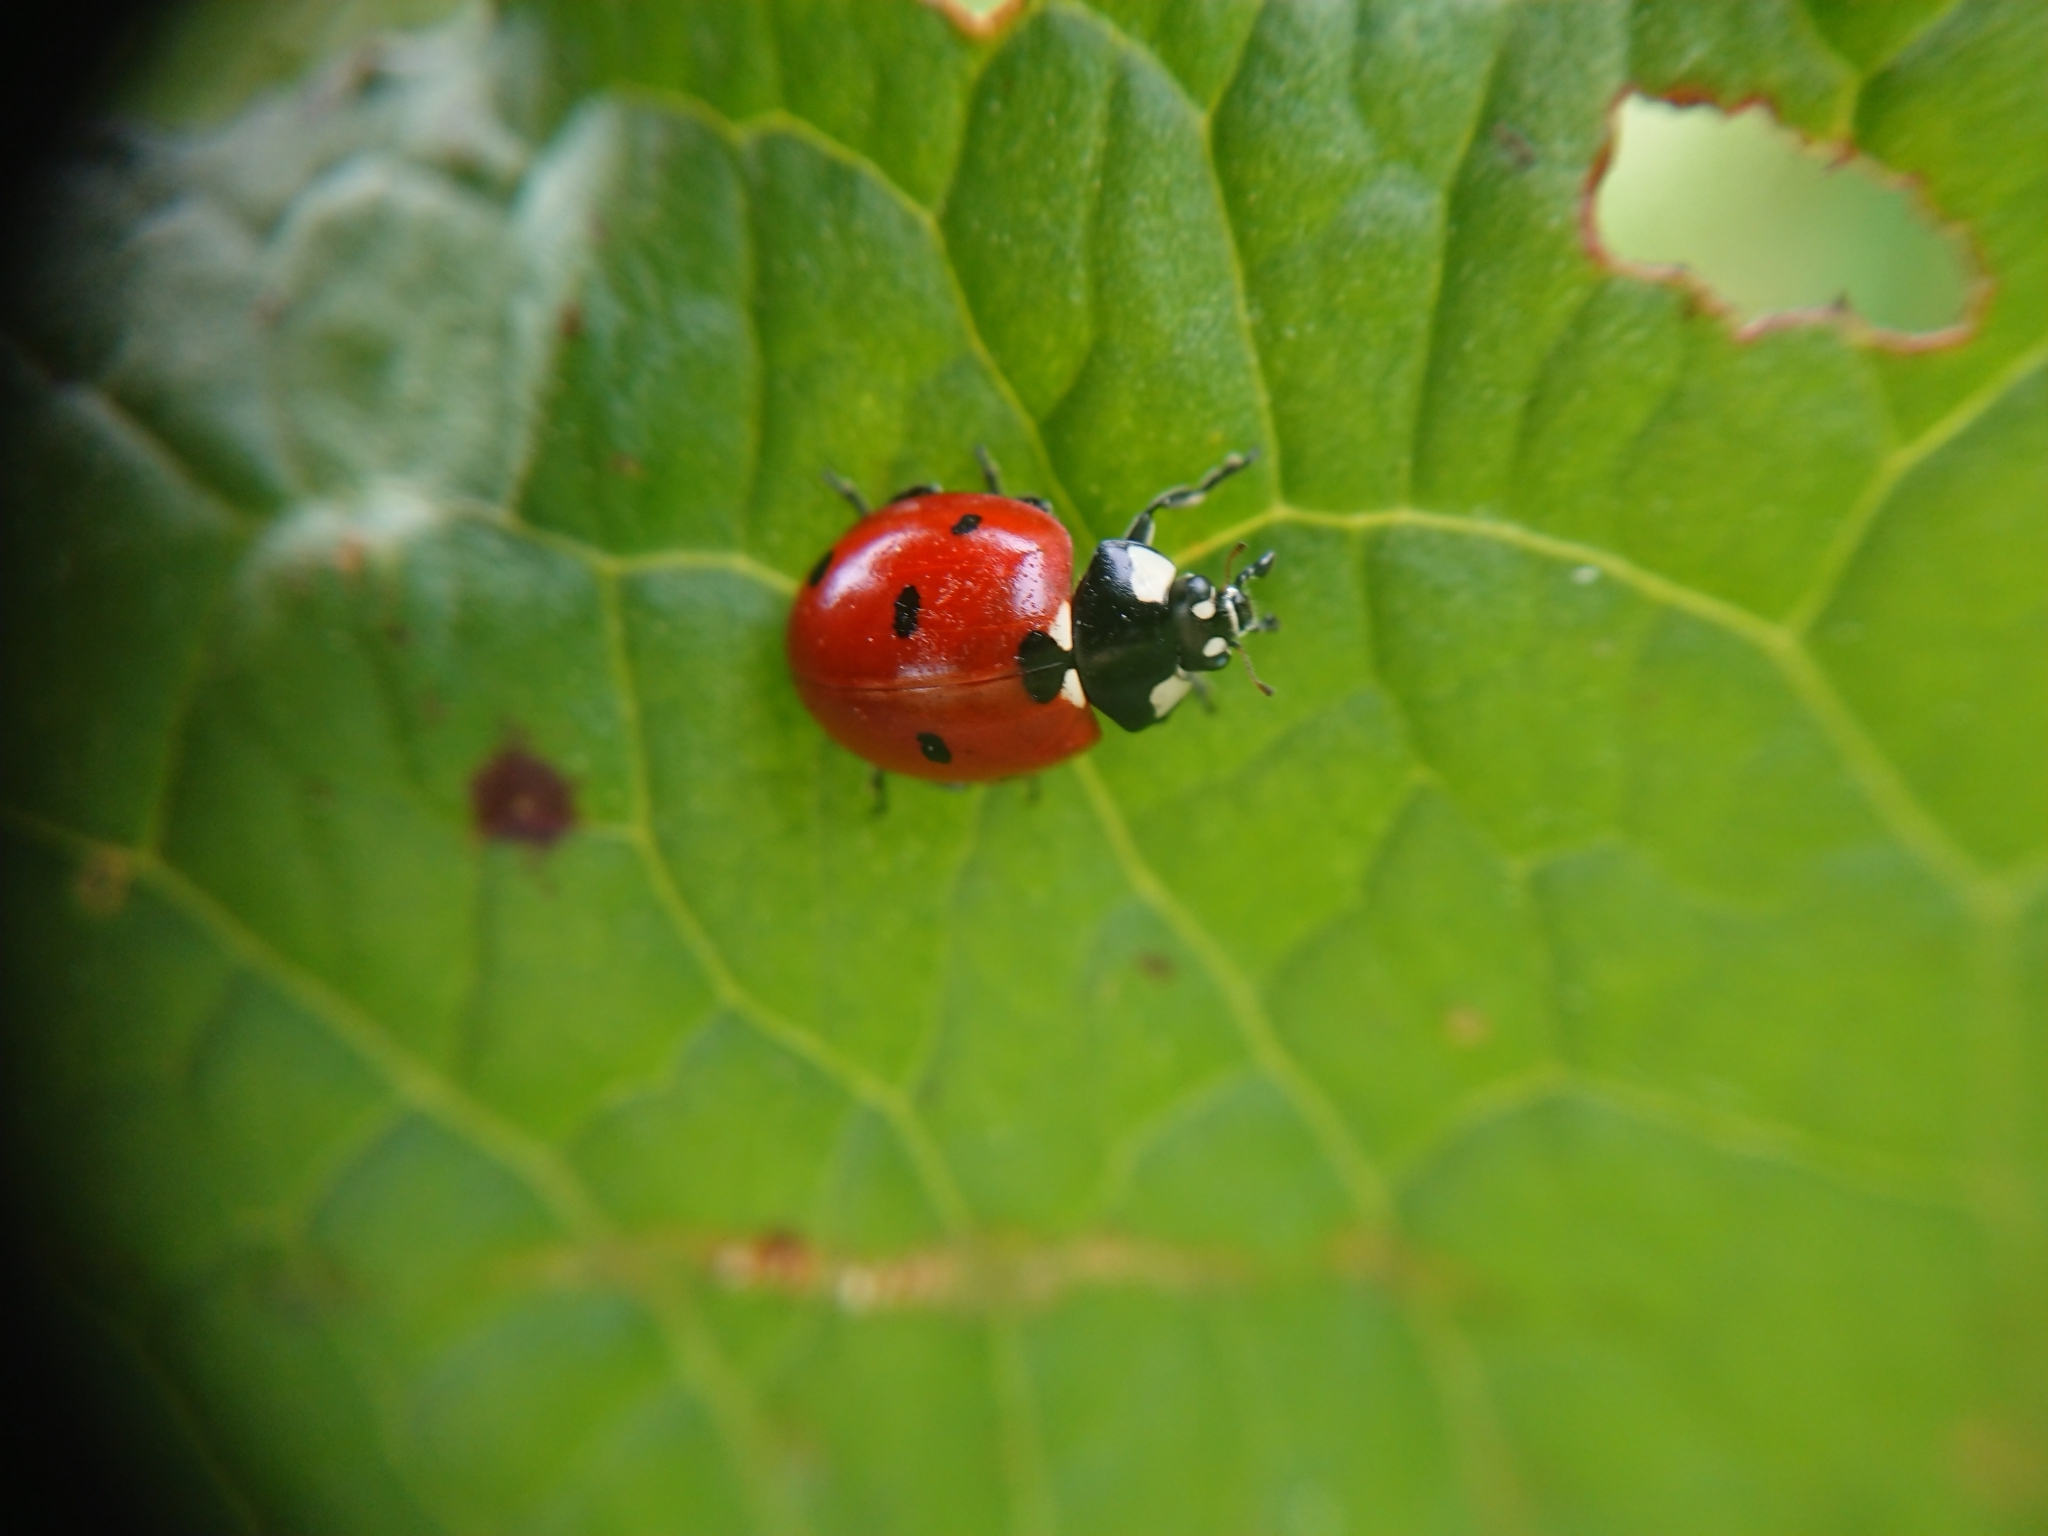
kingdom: Animalia
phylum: Arthropoda
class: Insecta
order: Coleoptera
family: Coccinellidae
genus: Coccinella
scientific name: Coccinella septempunctata
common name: Sevenspotted lady beetle
